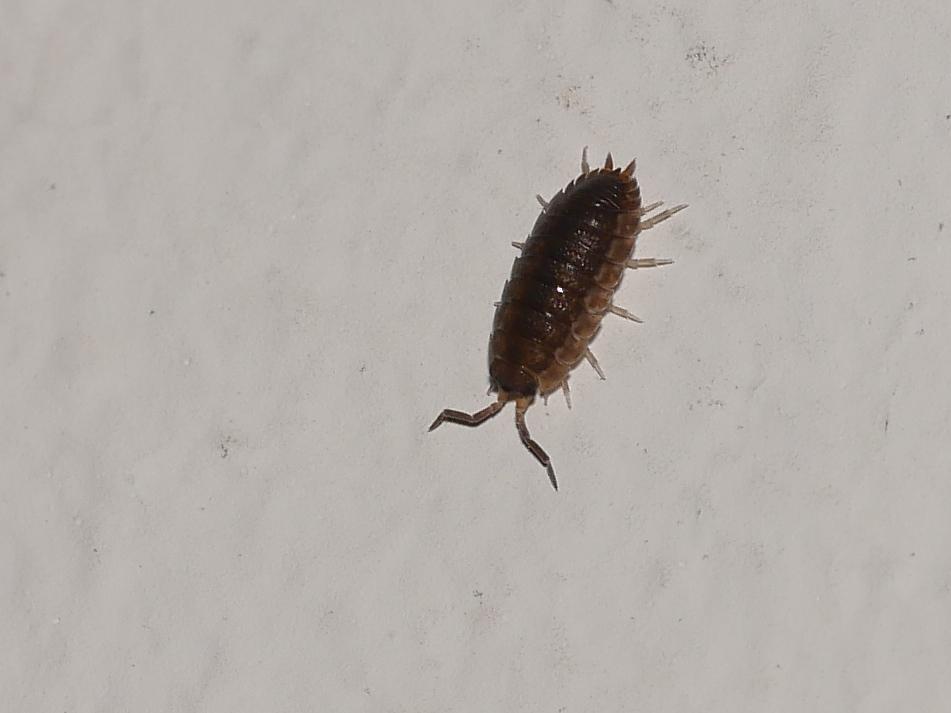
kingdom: Animalia
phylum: Arthropoda
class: Malacostraca
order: Isopoda
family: Porcellionidae
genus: Porcellio
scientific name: Porcellio scaber
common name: Common rough woodlouse
